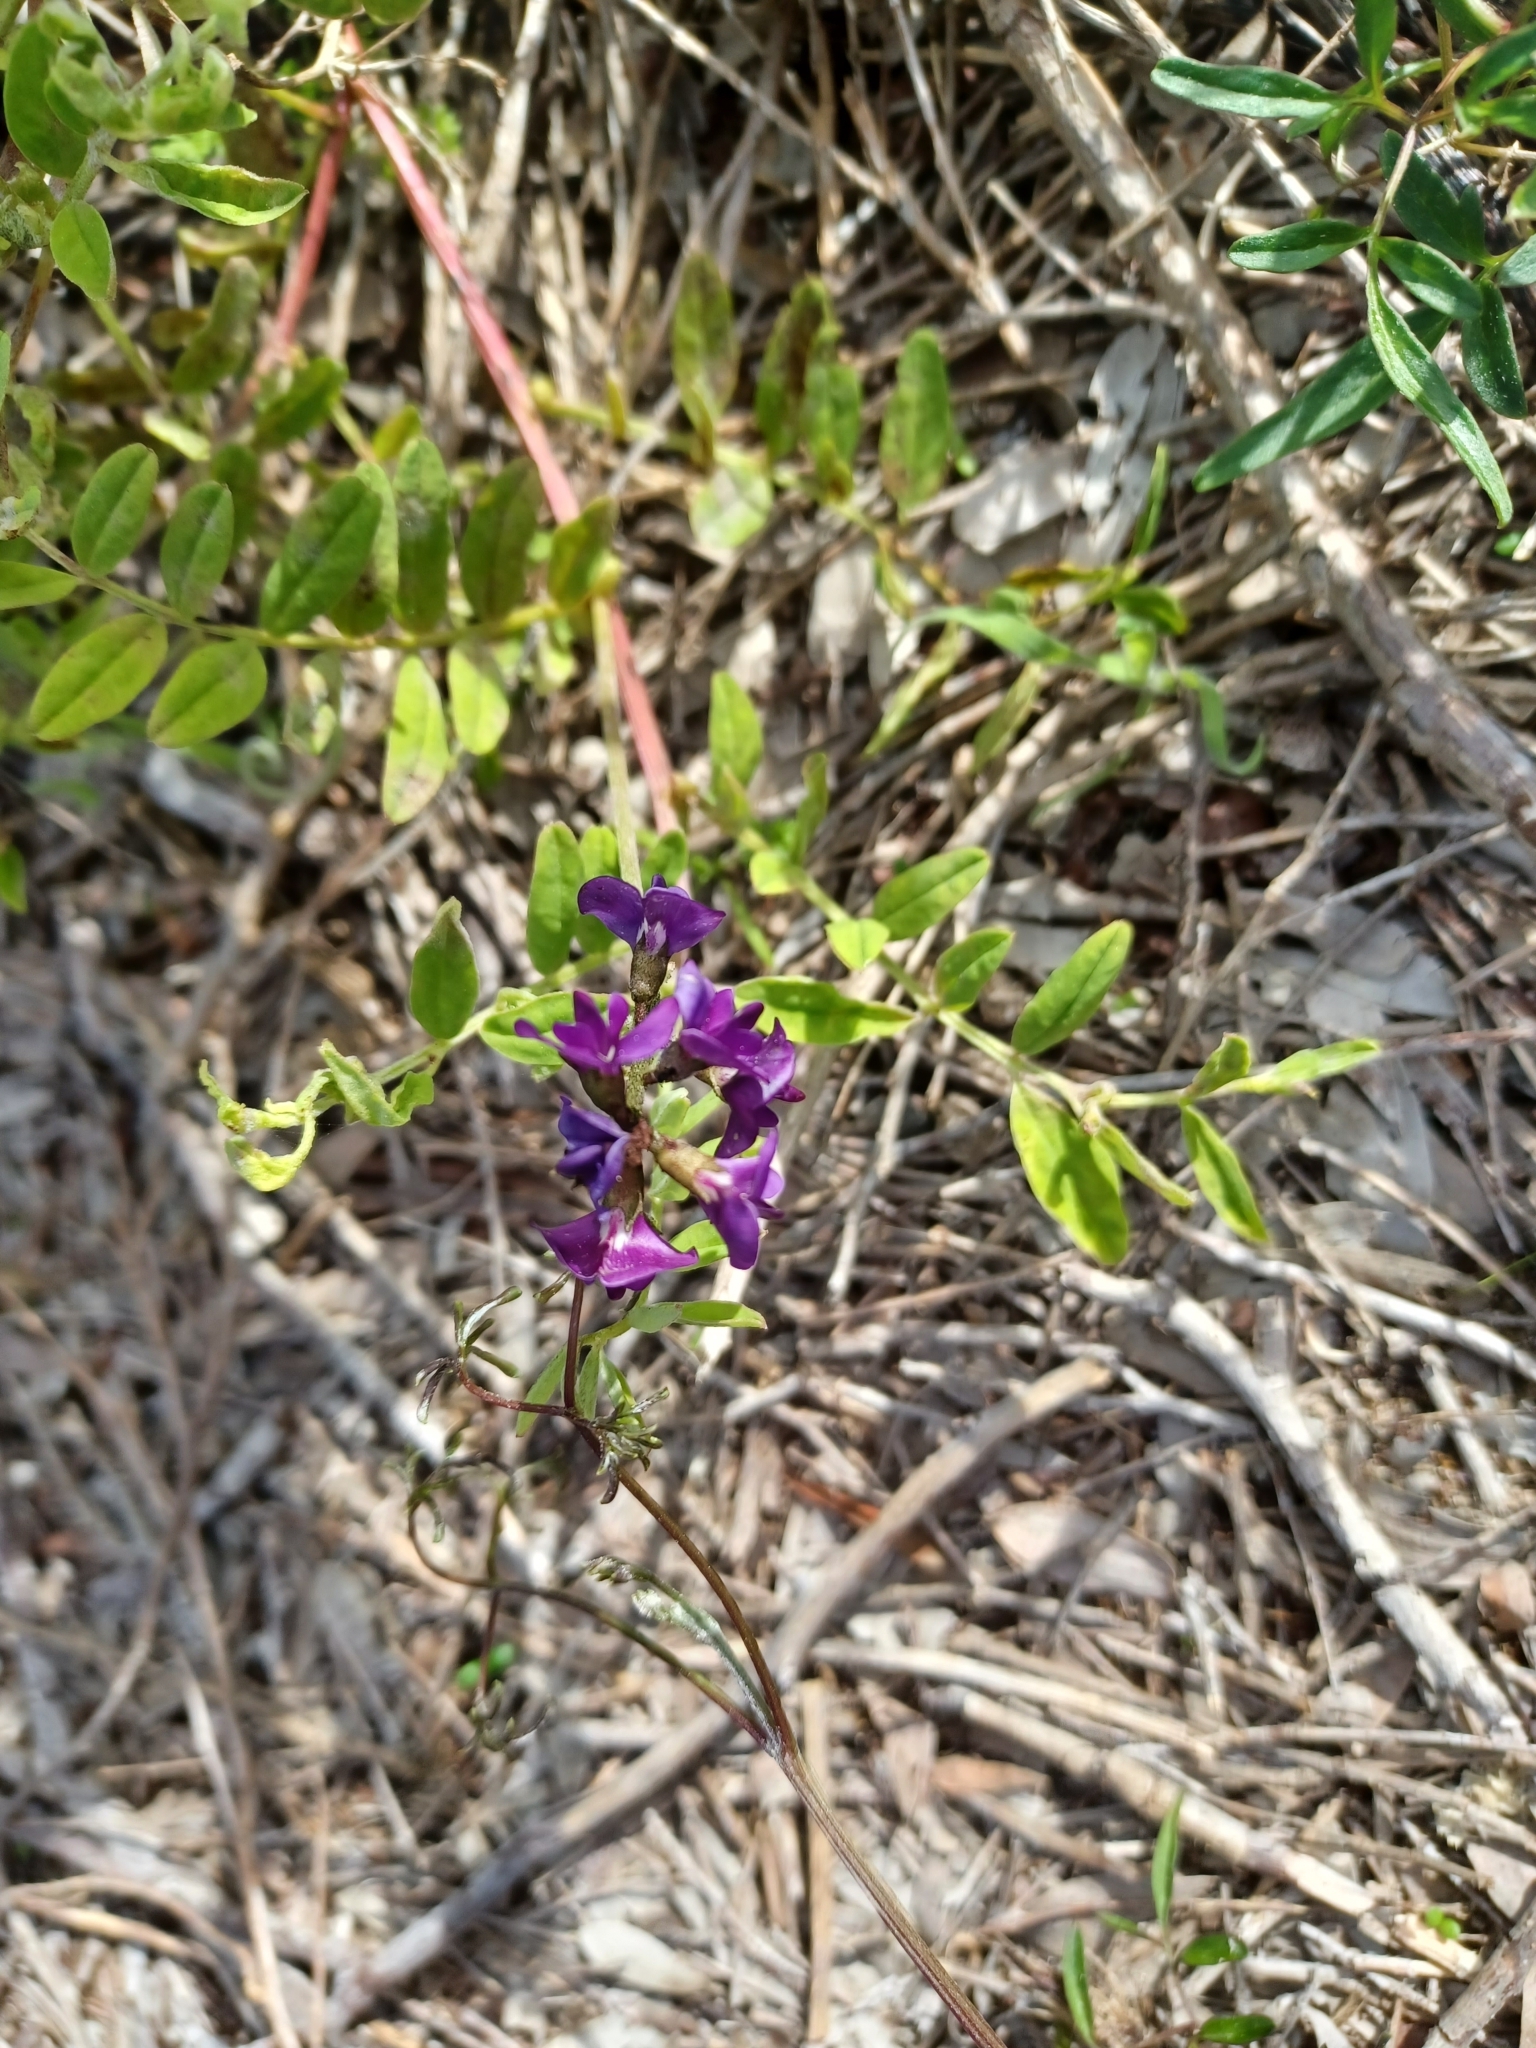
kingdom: Plantae
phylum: Tracheophyta
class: Magnoliopsida
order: Fabales
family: Fabaceae
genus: Swainsona
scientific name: Swainsona lessertiifolia
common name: Bog-pea
